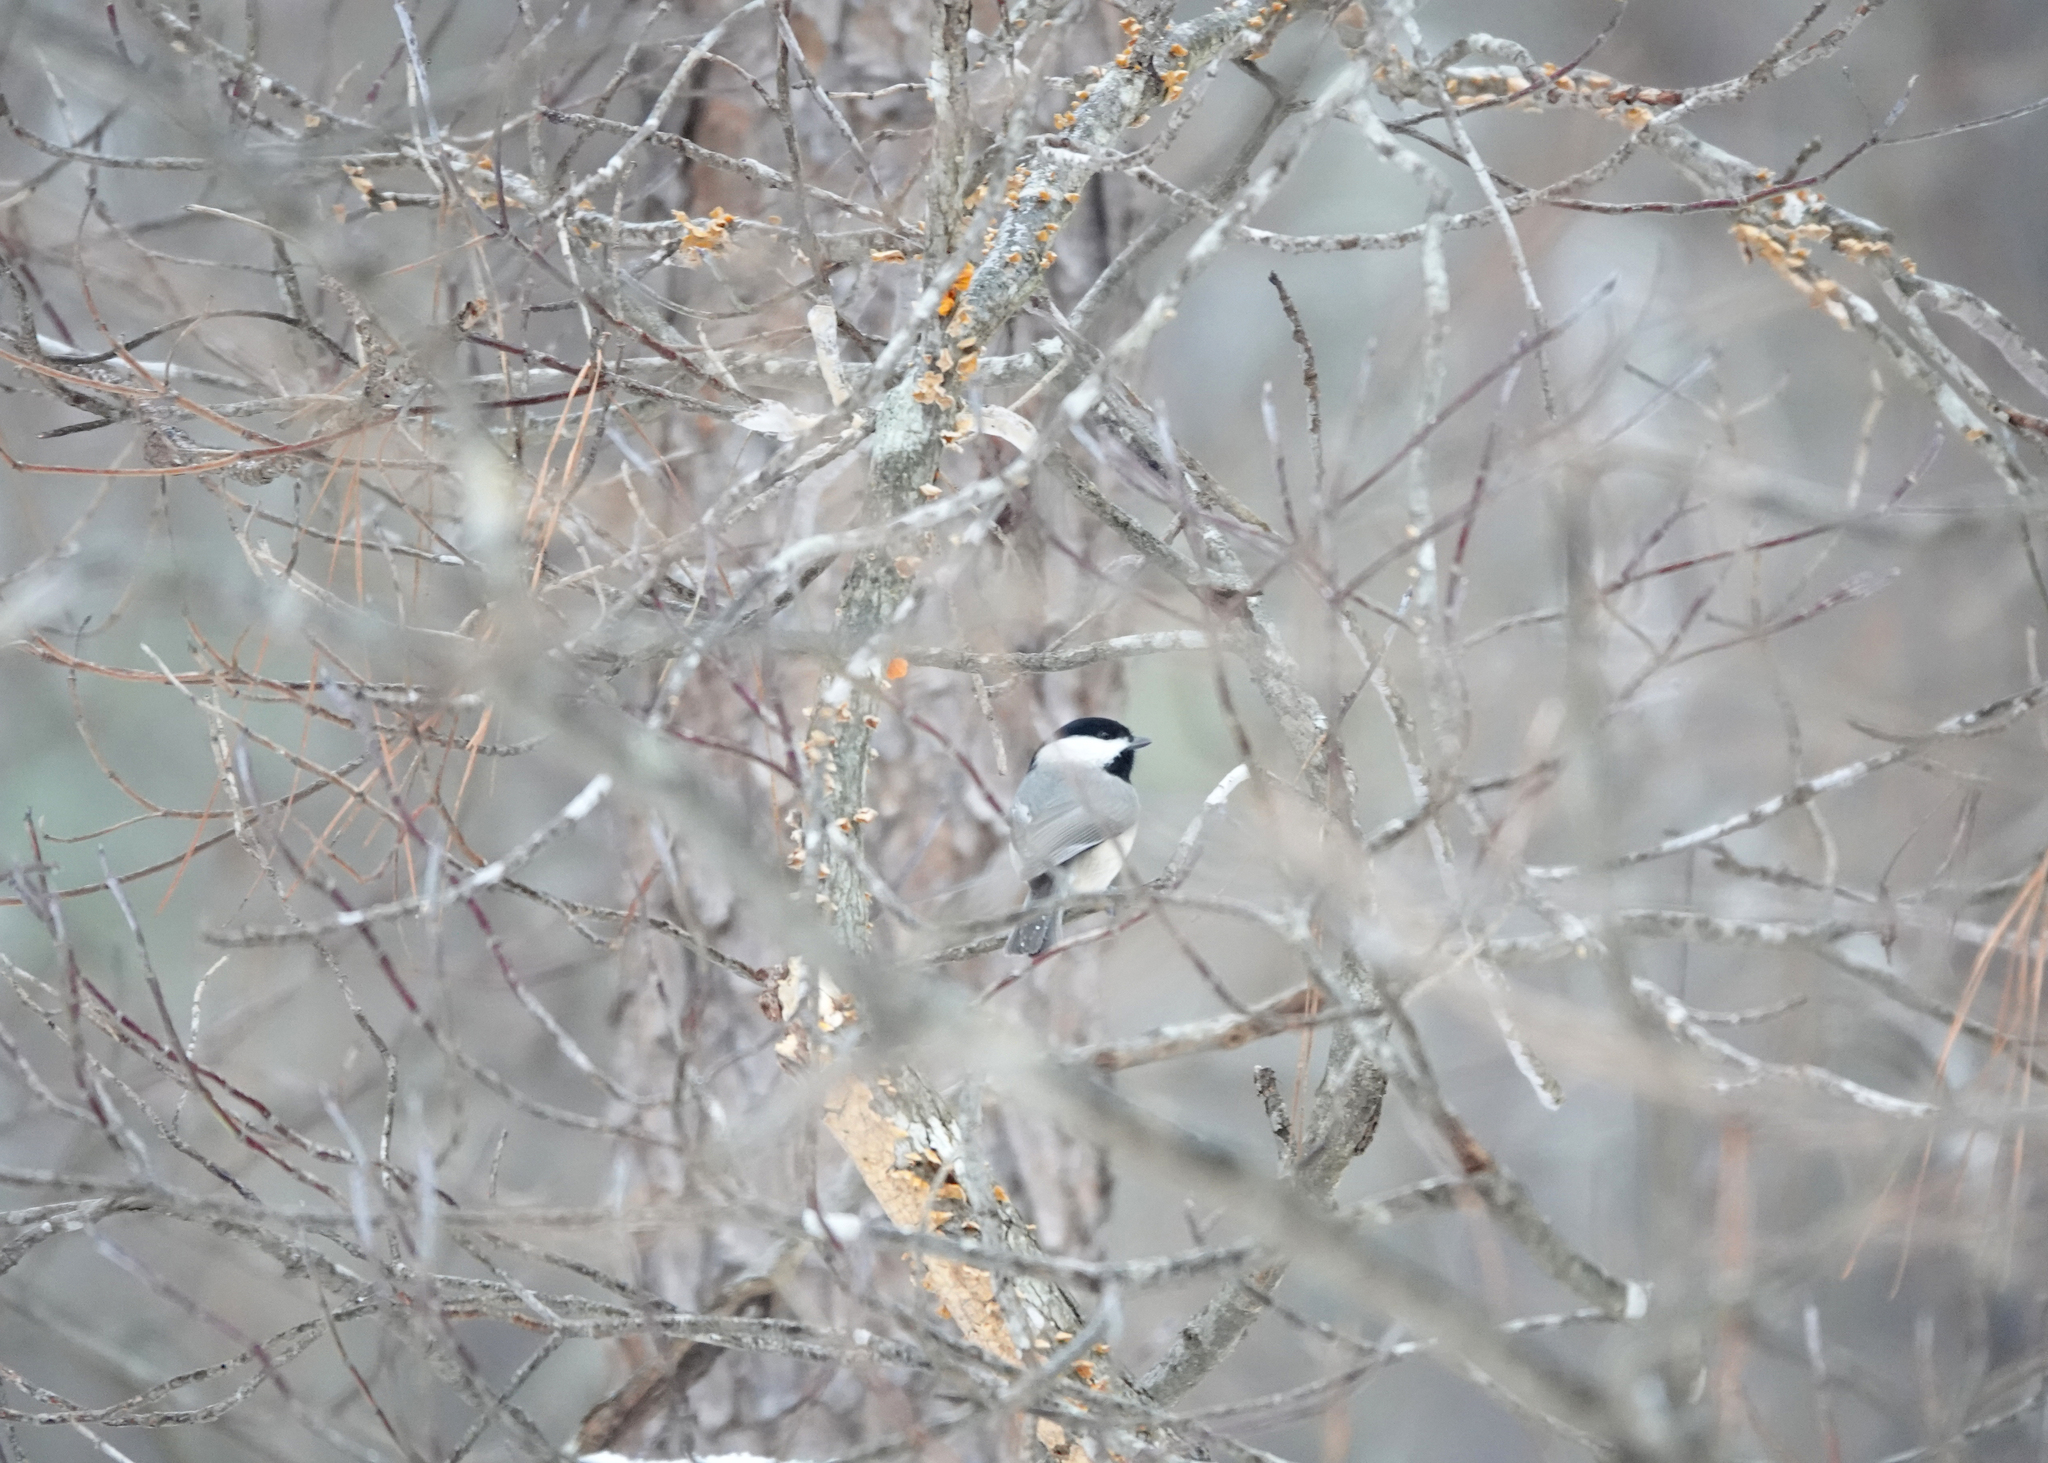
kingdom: Animalia
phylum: Chordata
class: Aves
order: Passeriformes
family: Paridae
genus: Poecile
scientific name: Poecile carolinensis
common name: Carolina chickadee
